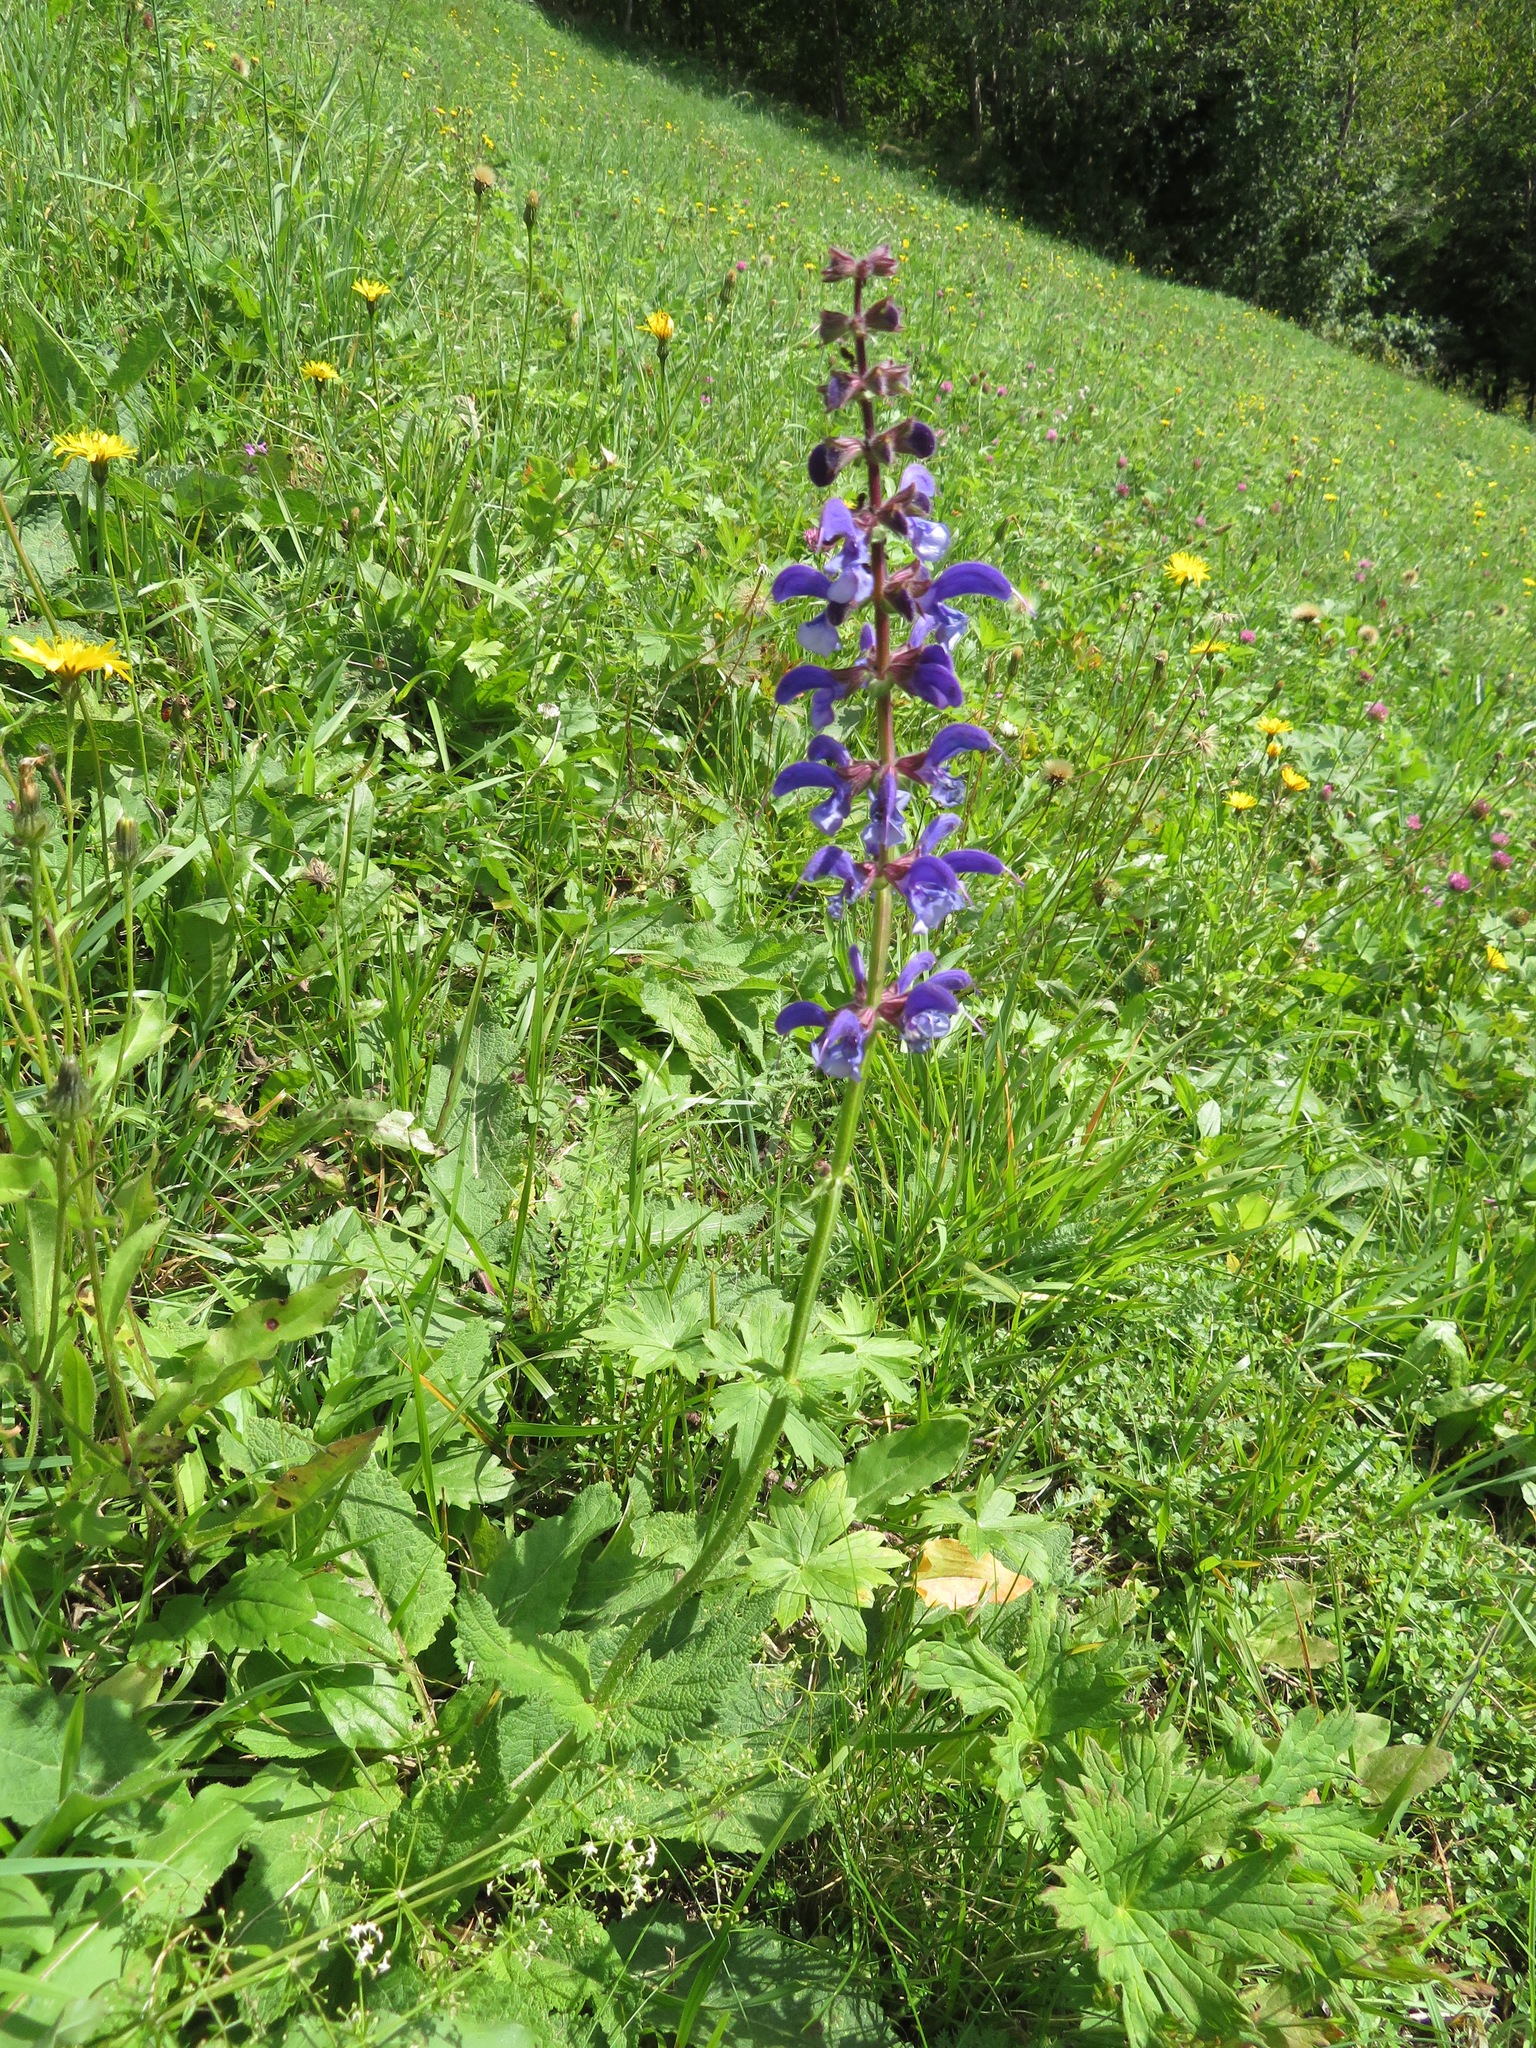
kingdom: Plantae
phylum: Tracheophyta
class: Magnoliopsida
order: Lamiales
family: Lamiaceae
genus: Salvia
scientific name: Salvia pratensis
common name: Meadow sage
